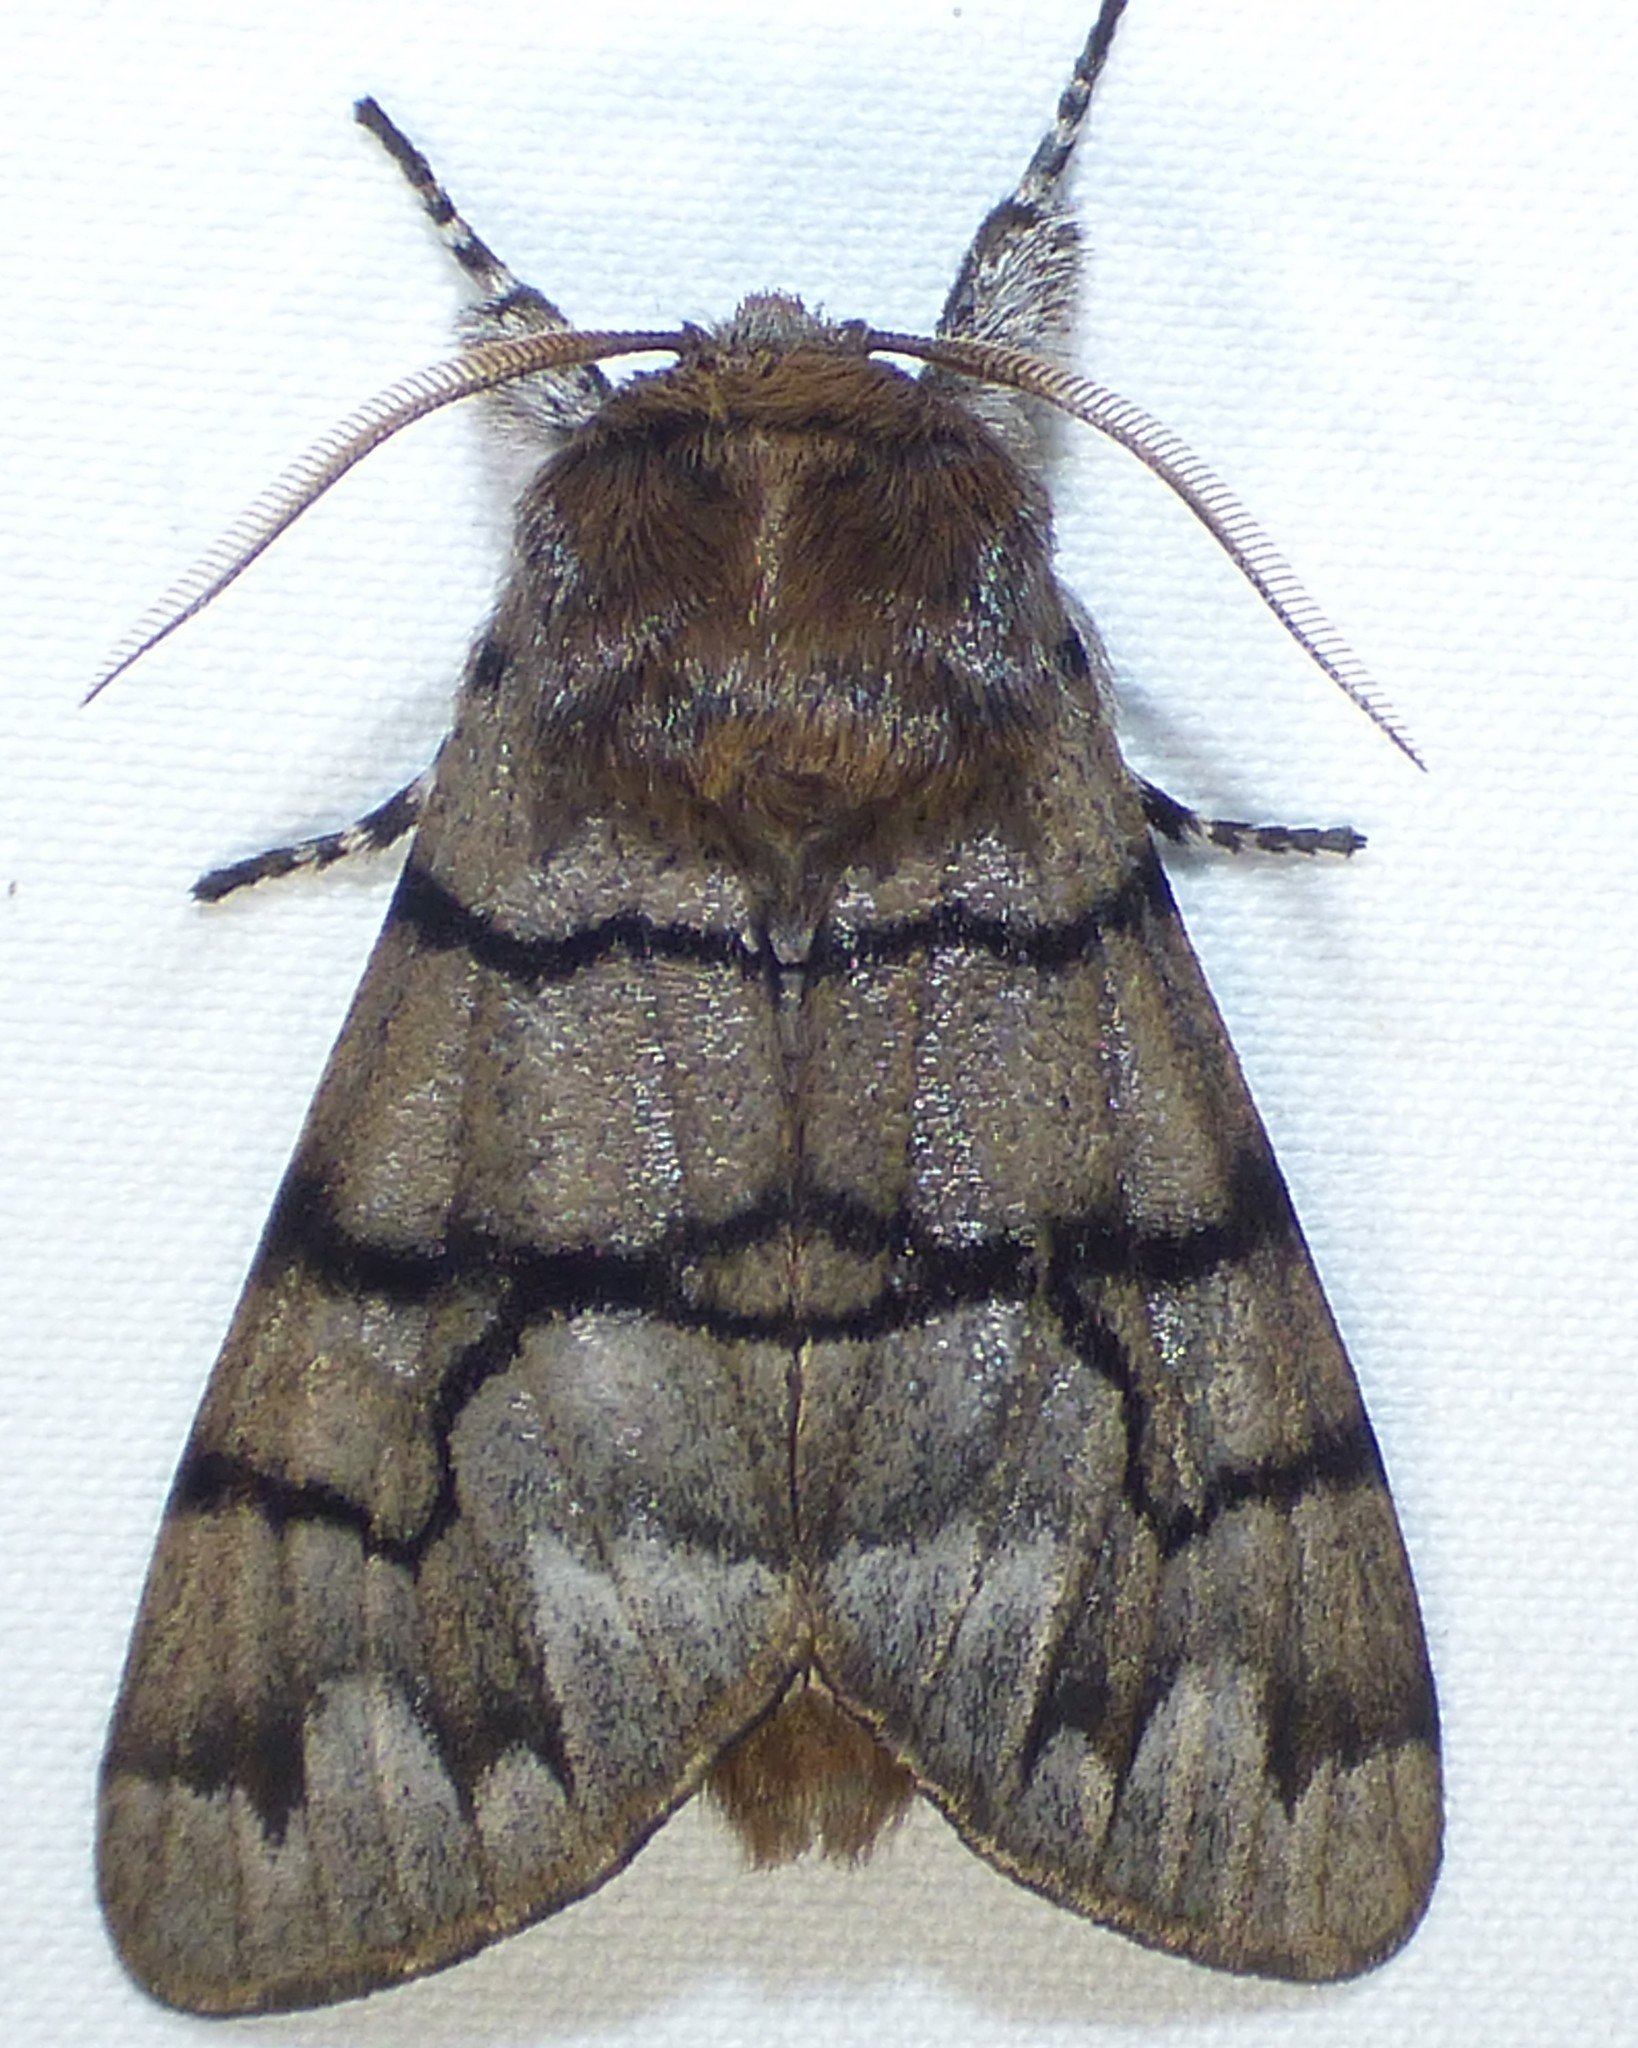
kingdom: Animalia
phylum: Arthropoda
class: Insecta
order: Lepidoptera
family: Noctuidae
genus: Panthea
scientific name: Panthea furcilla
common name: Eastern panthea moth
